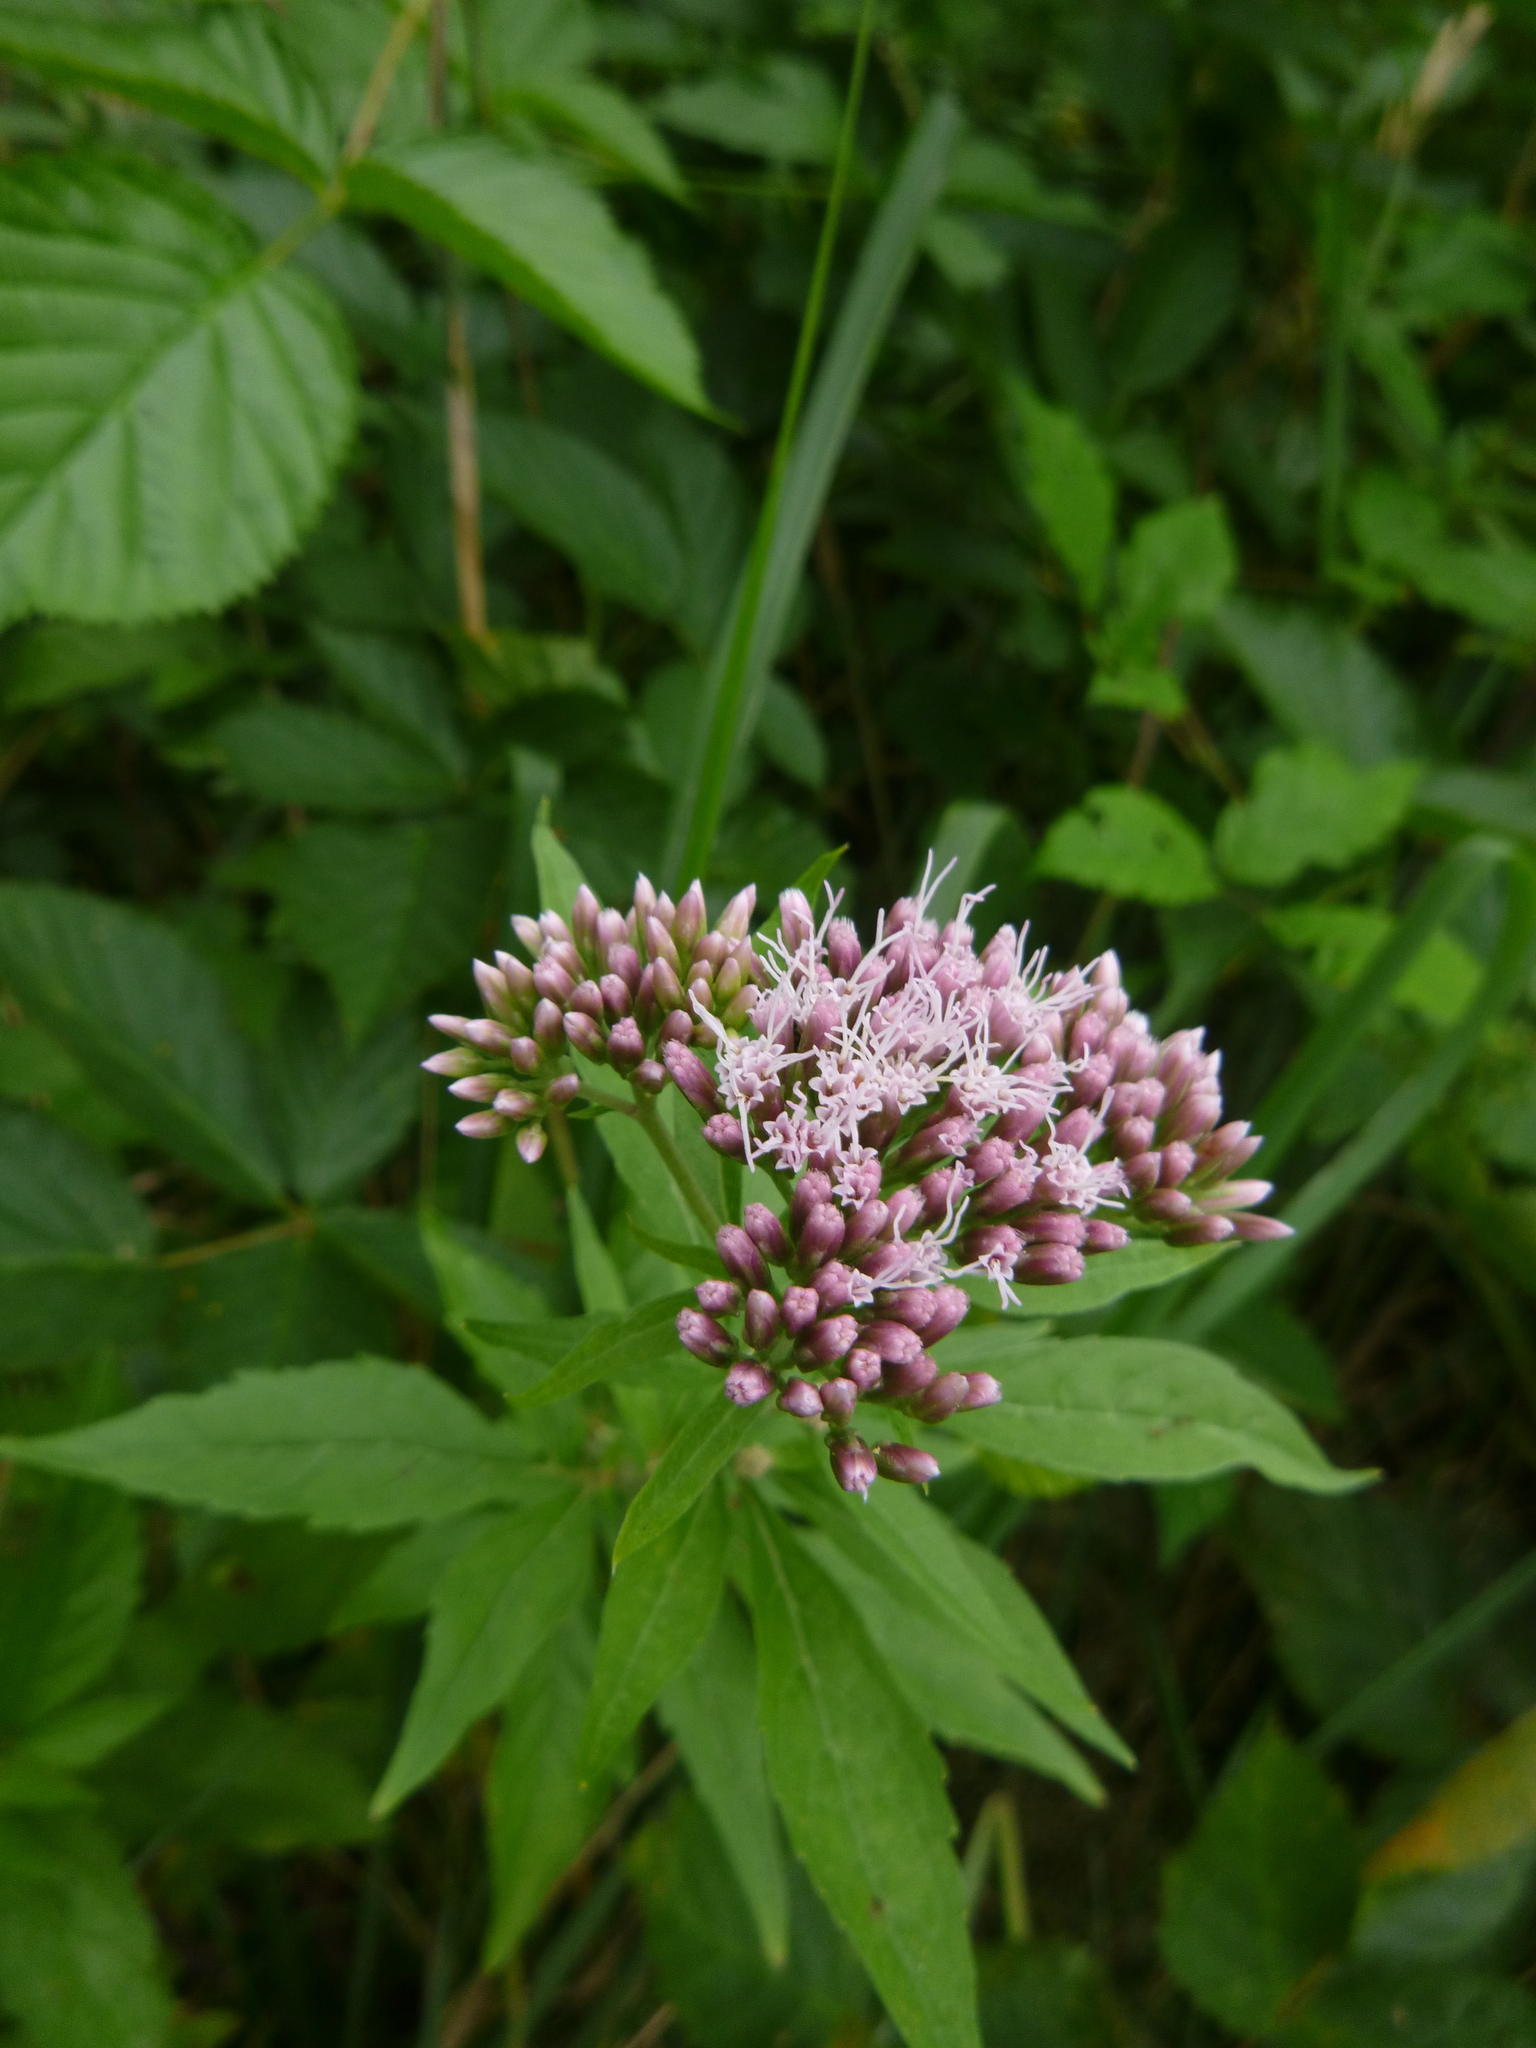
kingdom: Plantae
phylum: Tracheophyta
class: Magnoliopsida
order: Asterales
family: Asteraceae
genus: Eupatorium
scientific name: Eupatorium cannabinum
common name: Hemp-agrimony
